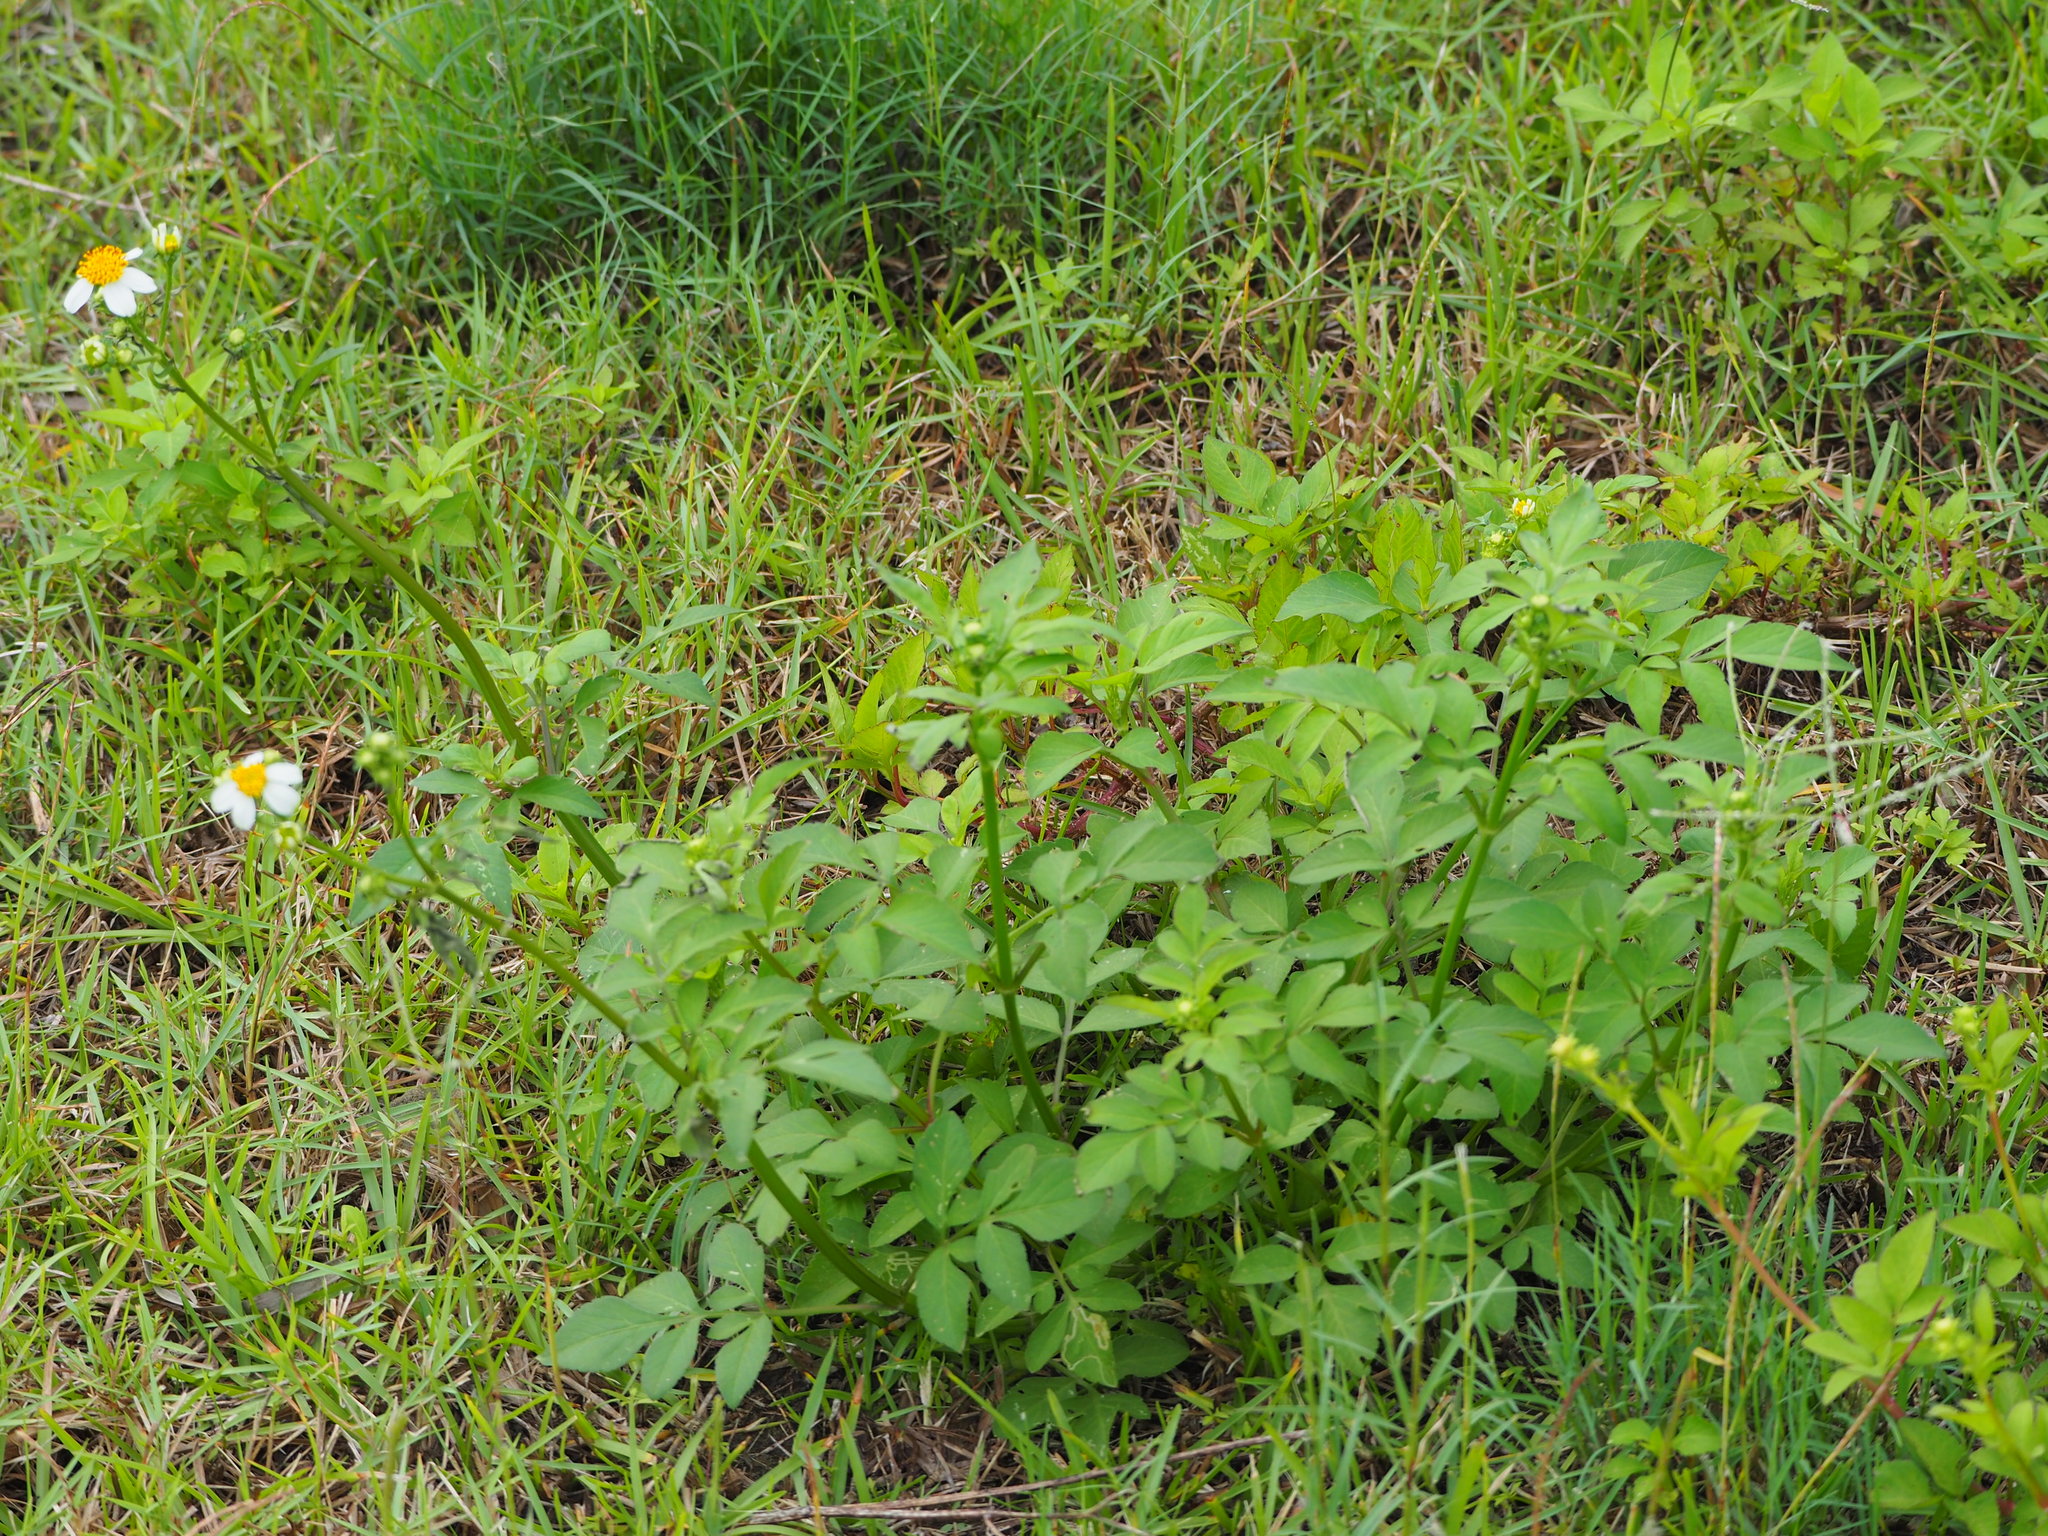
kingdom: Plantae
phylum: Tracheophyta
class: Magnoliopsida
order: Asterales
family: Asteraceae
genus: Bidens
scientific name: Bidens alba
